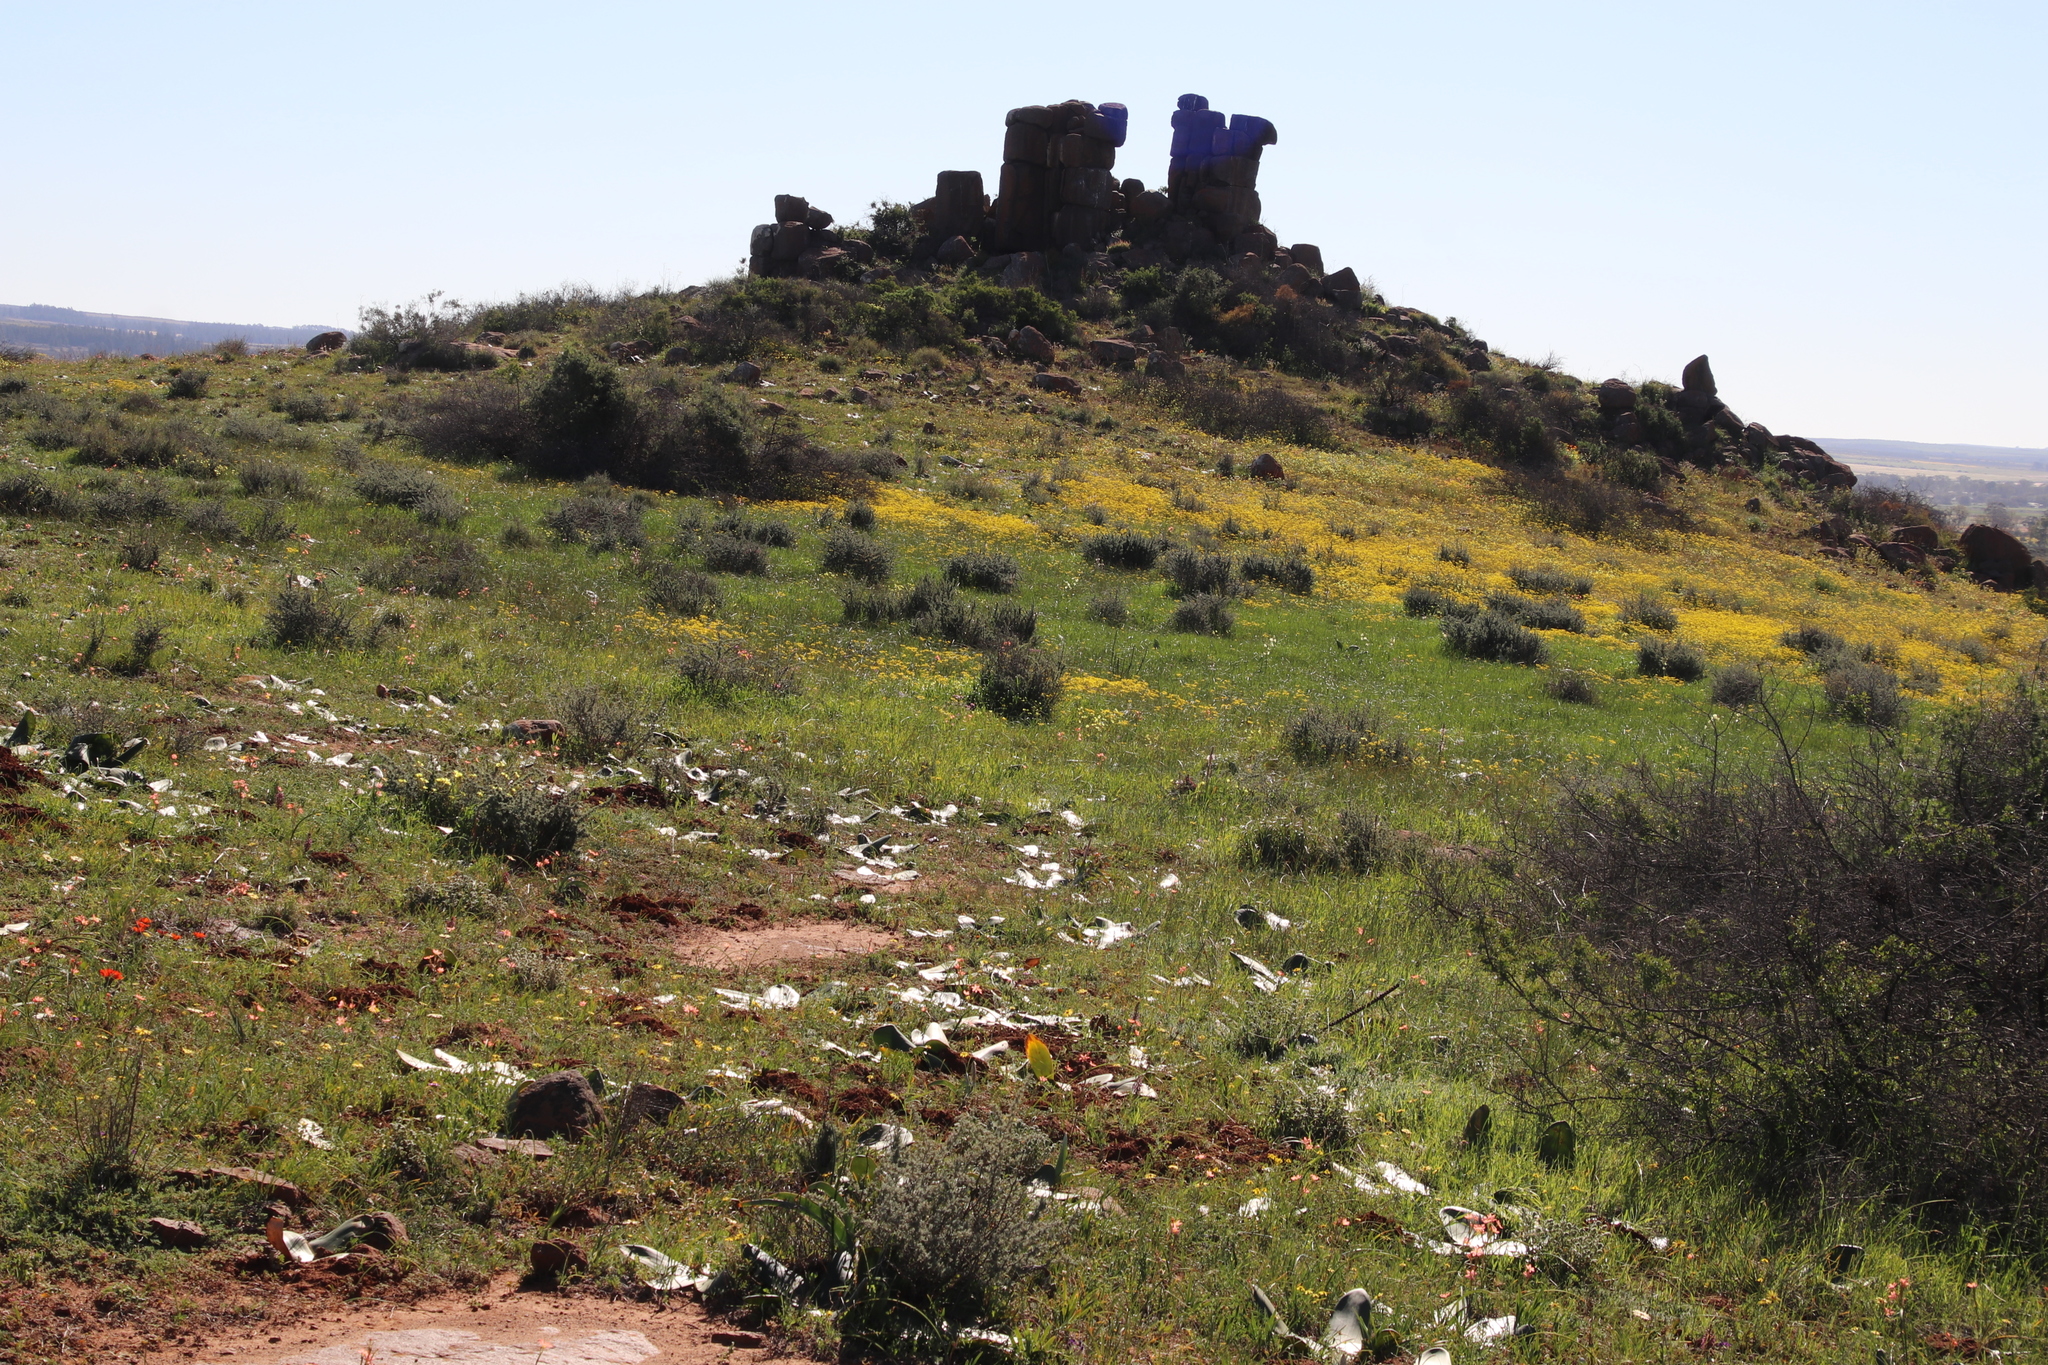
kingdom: Plantae
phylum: Tracheophyta
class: Magnoliopsida
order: Asterales
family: Asteraceae
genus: Senecio
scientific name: Senecio abruptus
